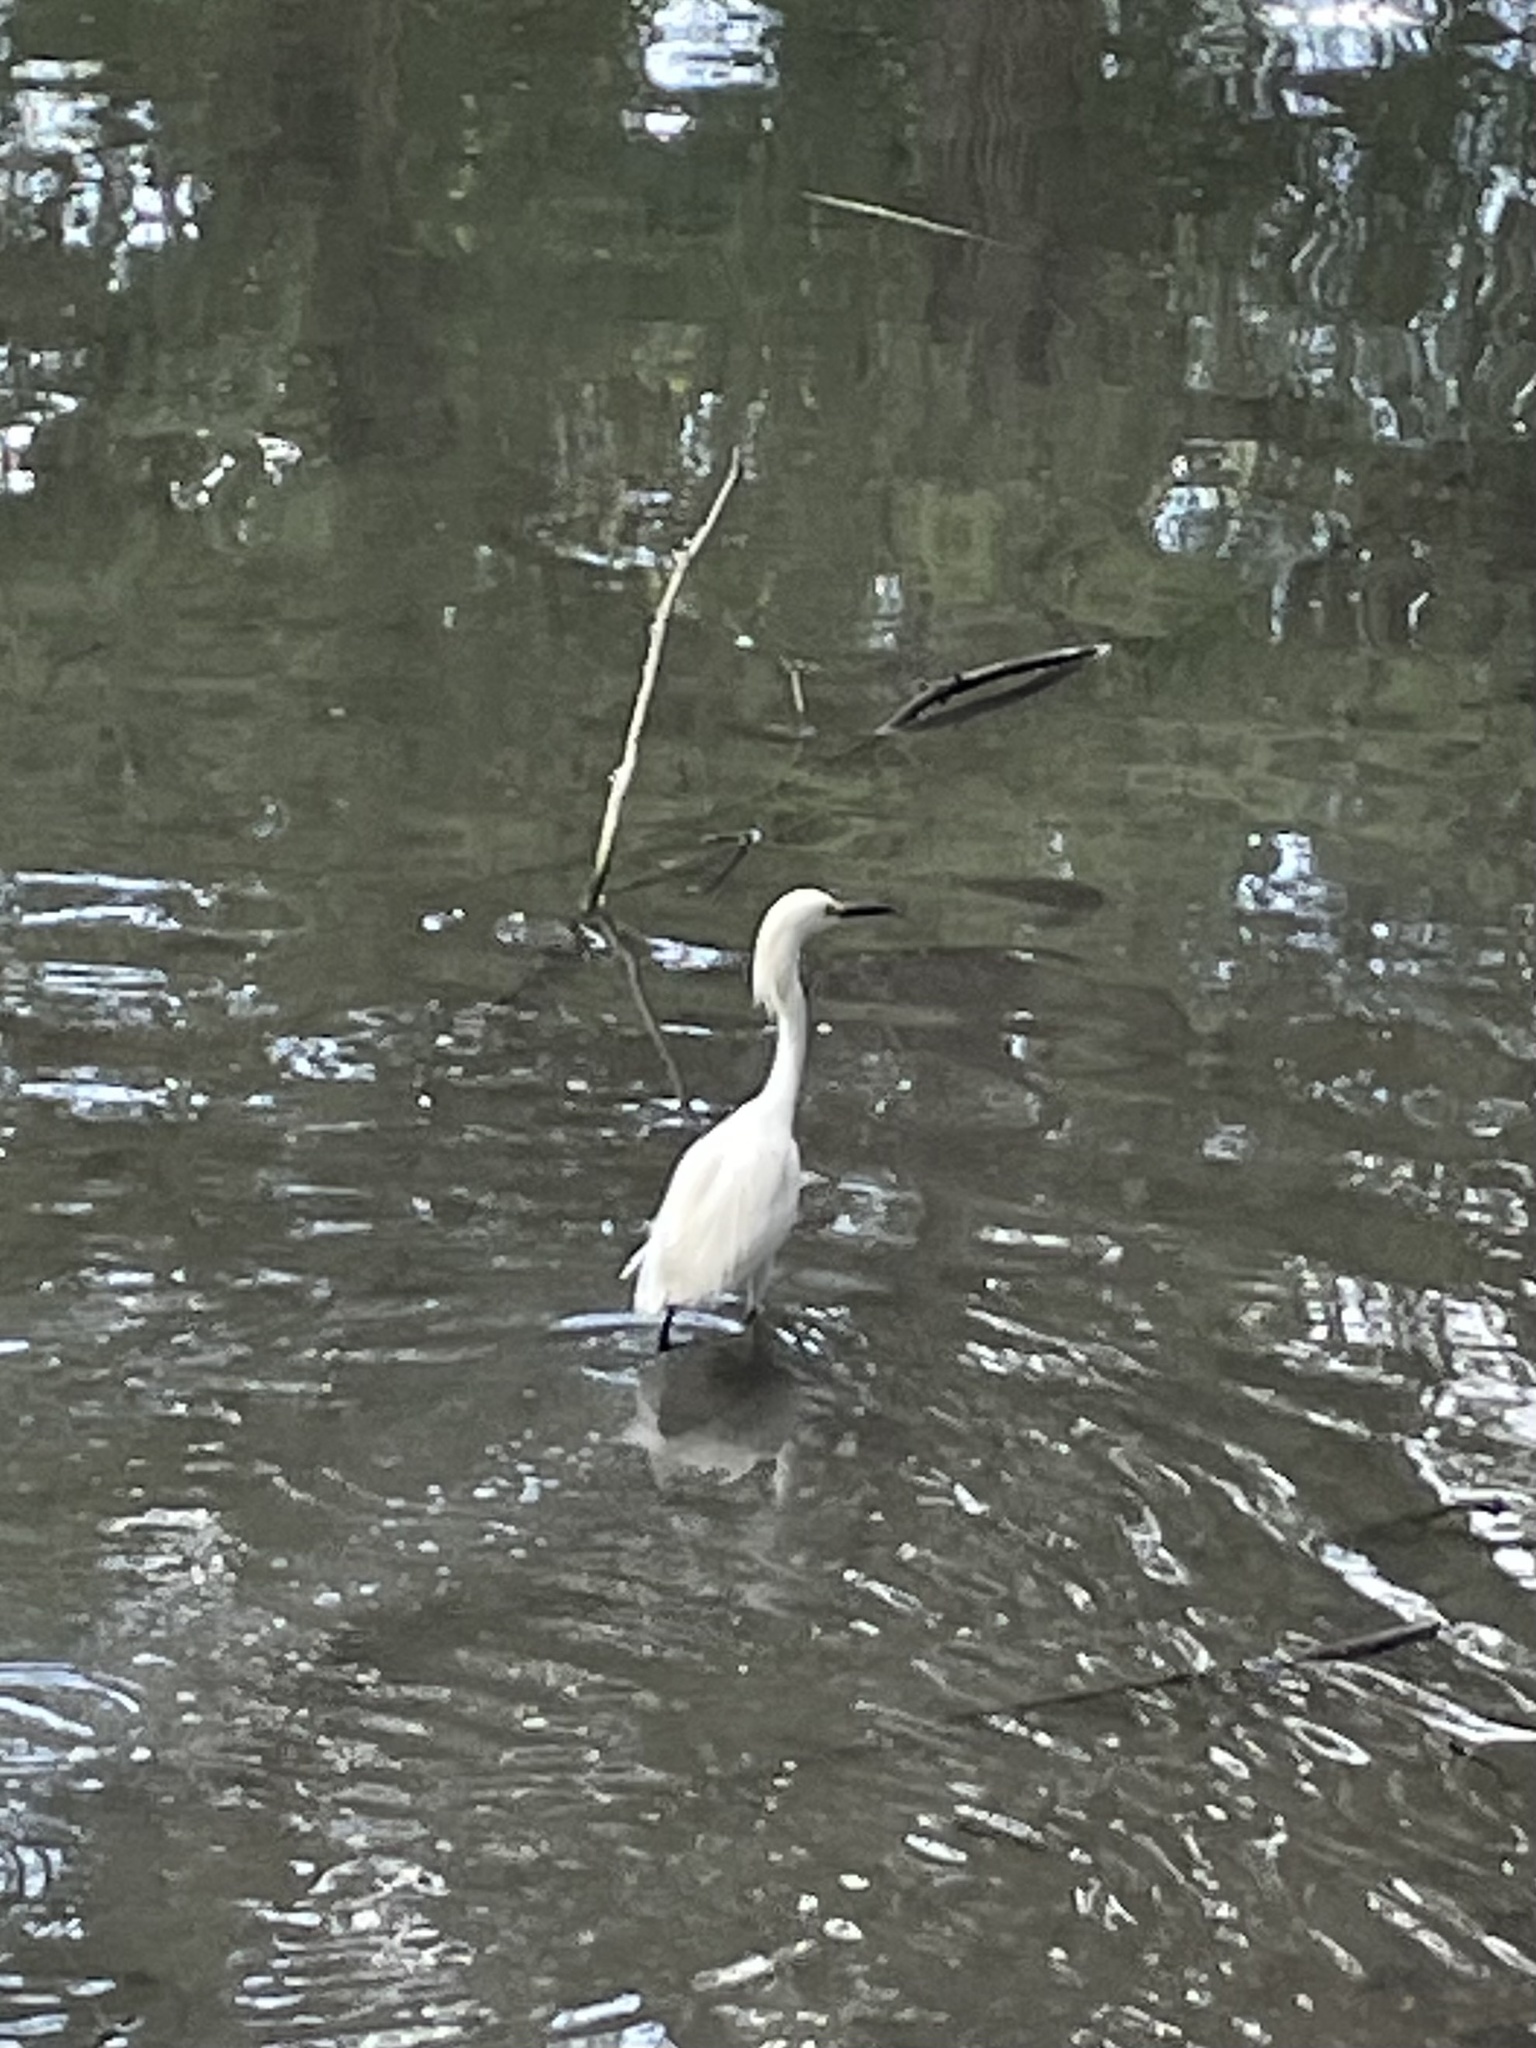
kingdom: Animalia
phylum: Chordata
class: Aves
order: Pelecaniformes
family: Ardeidae
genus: Egretta
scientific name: Egretta thula
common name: Snowy egret
